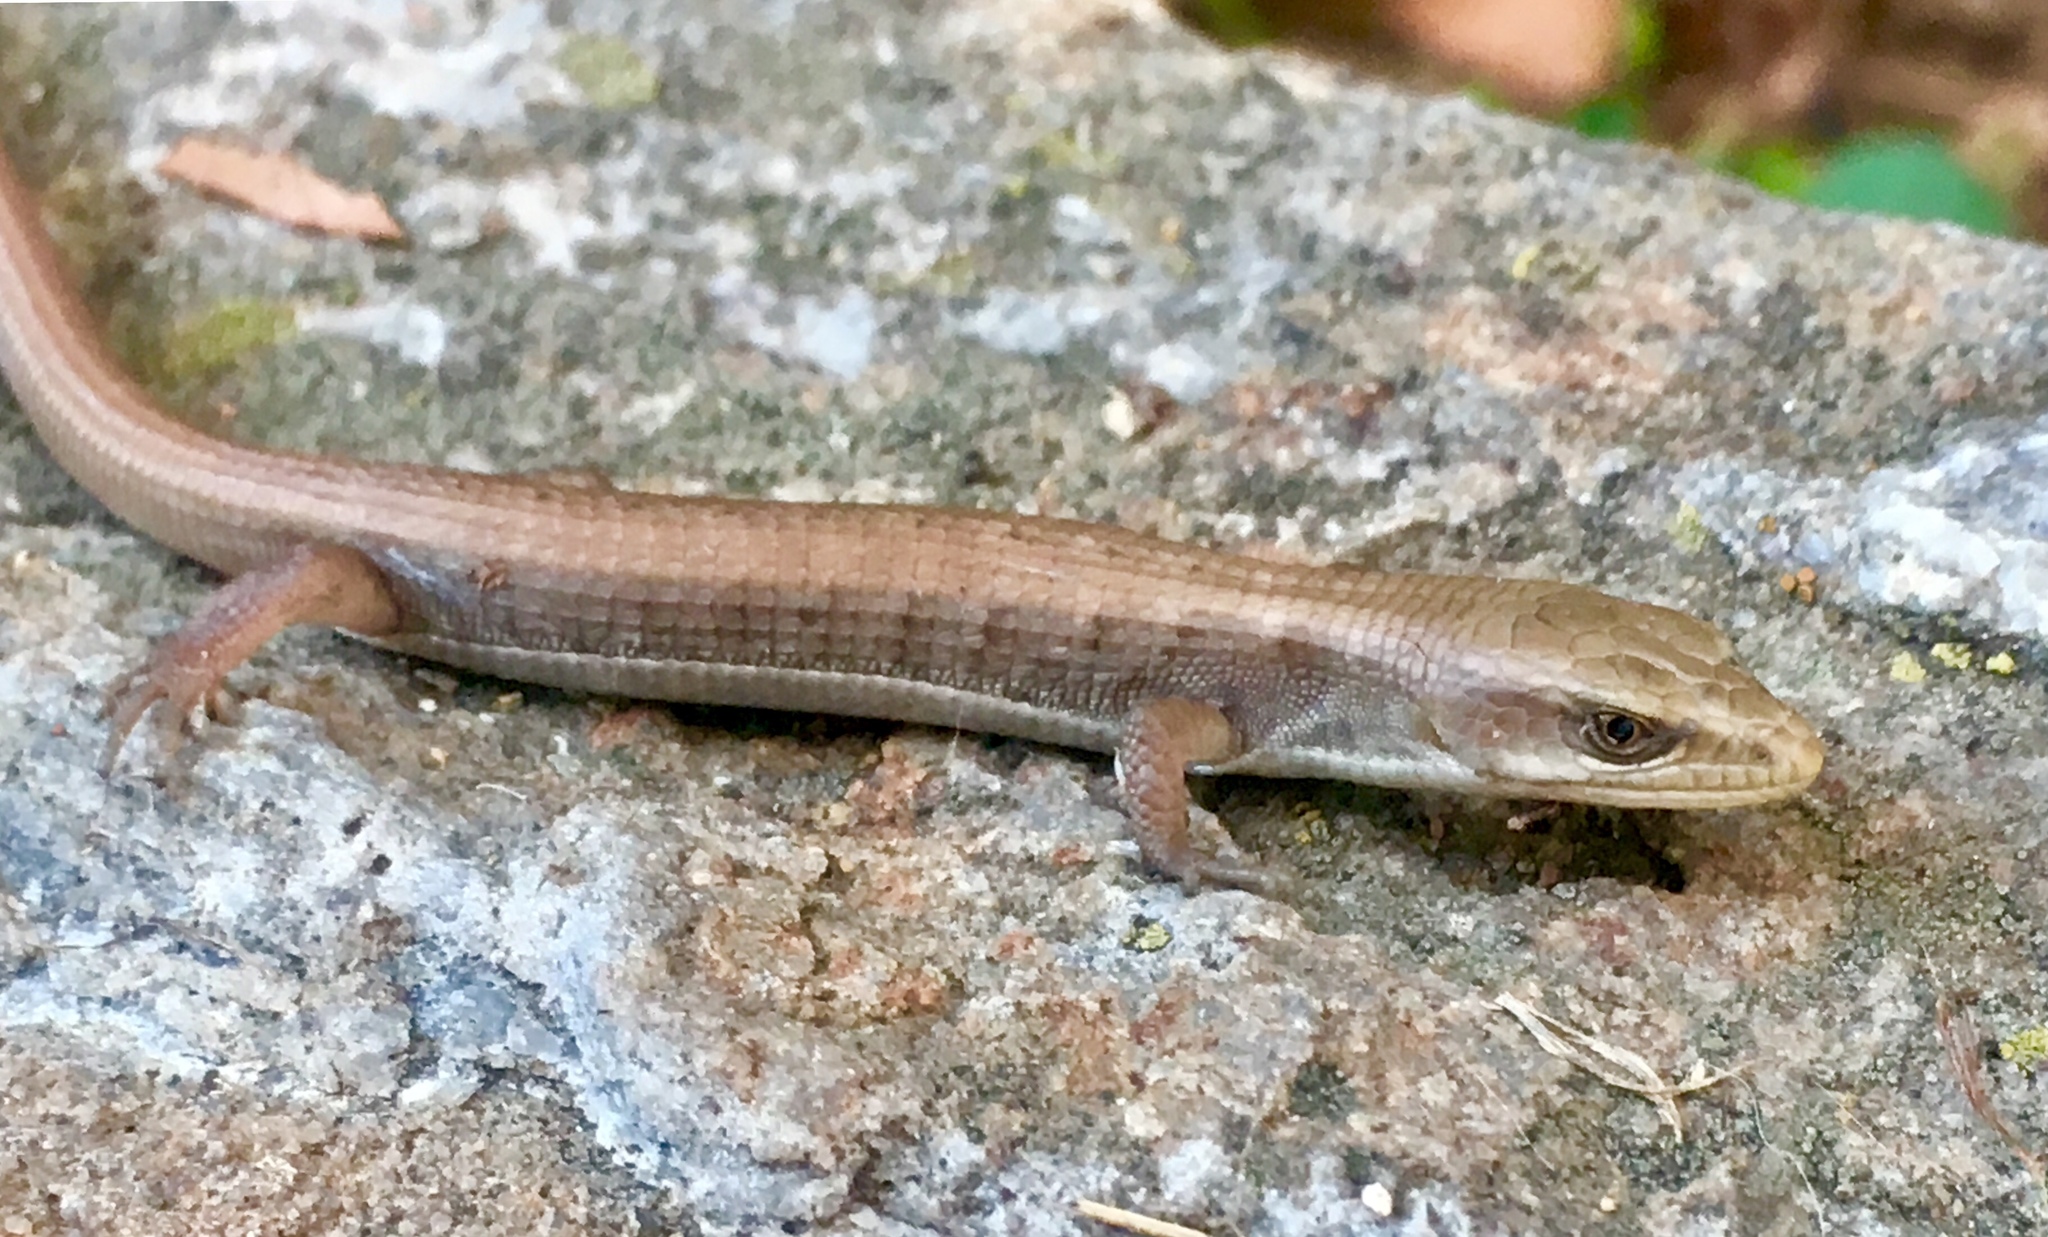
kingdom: Animalia
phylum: Chordata
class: Squamata
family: Anguidae
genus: Elgaria
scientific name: Elgaria multicarinata
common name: Southern alligator lizard
